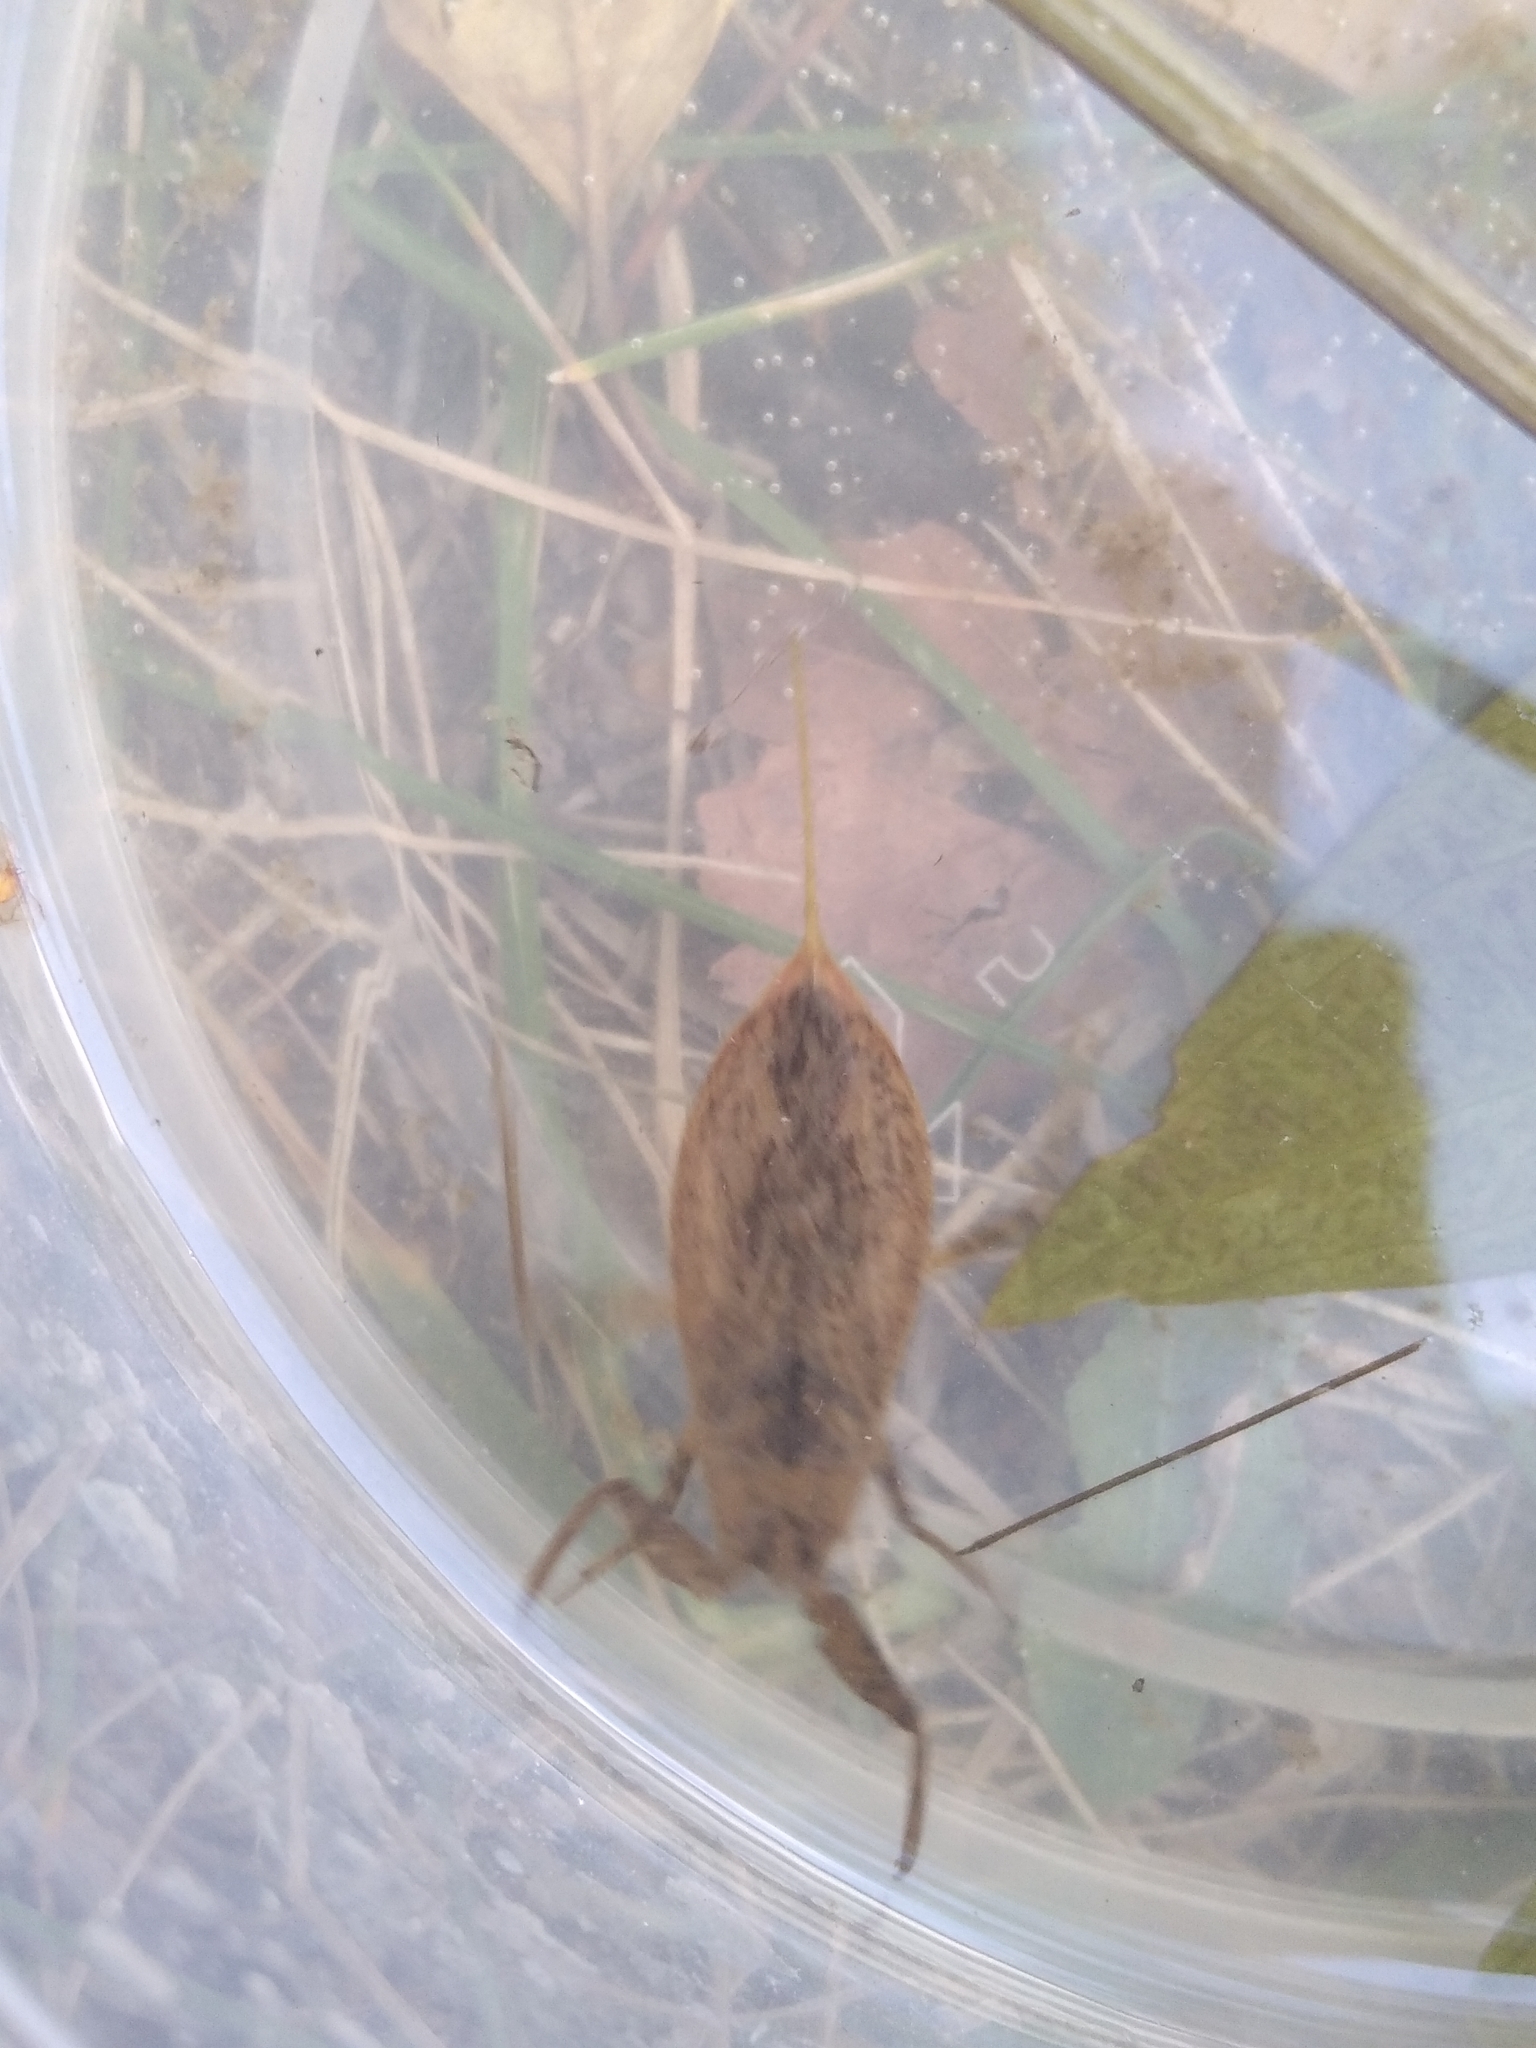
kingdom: Animalia
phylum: Arthropoda
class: Insecta
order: Hemiptera
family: Nepidae
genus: Nepa
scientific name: Nepa cinerea
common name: Water scorpion
